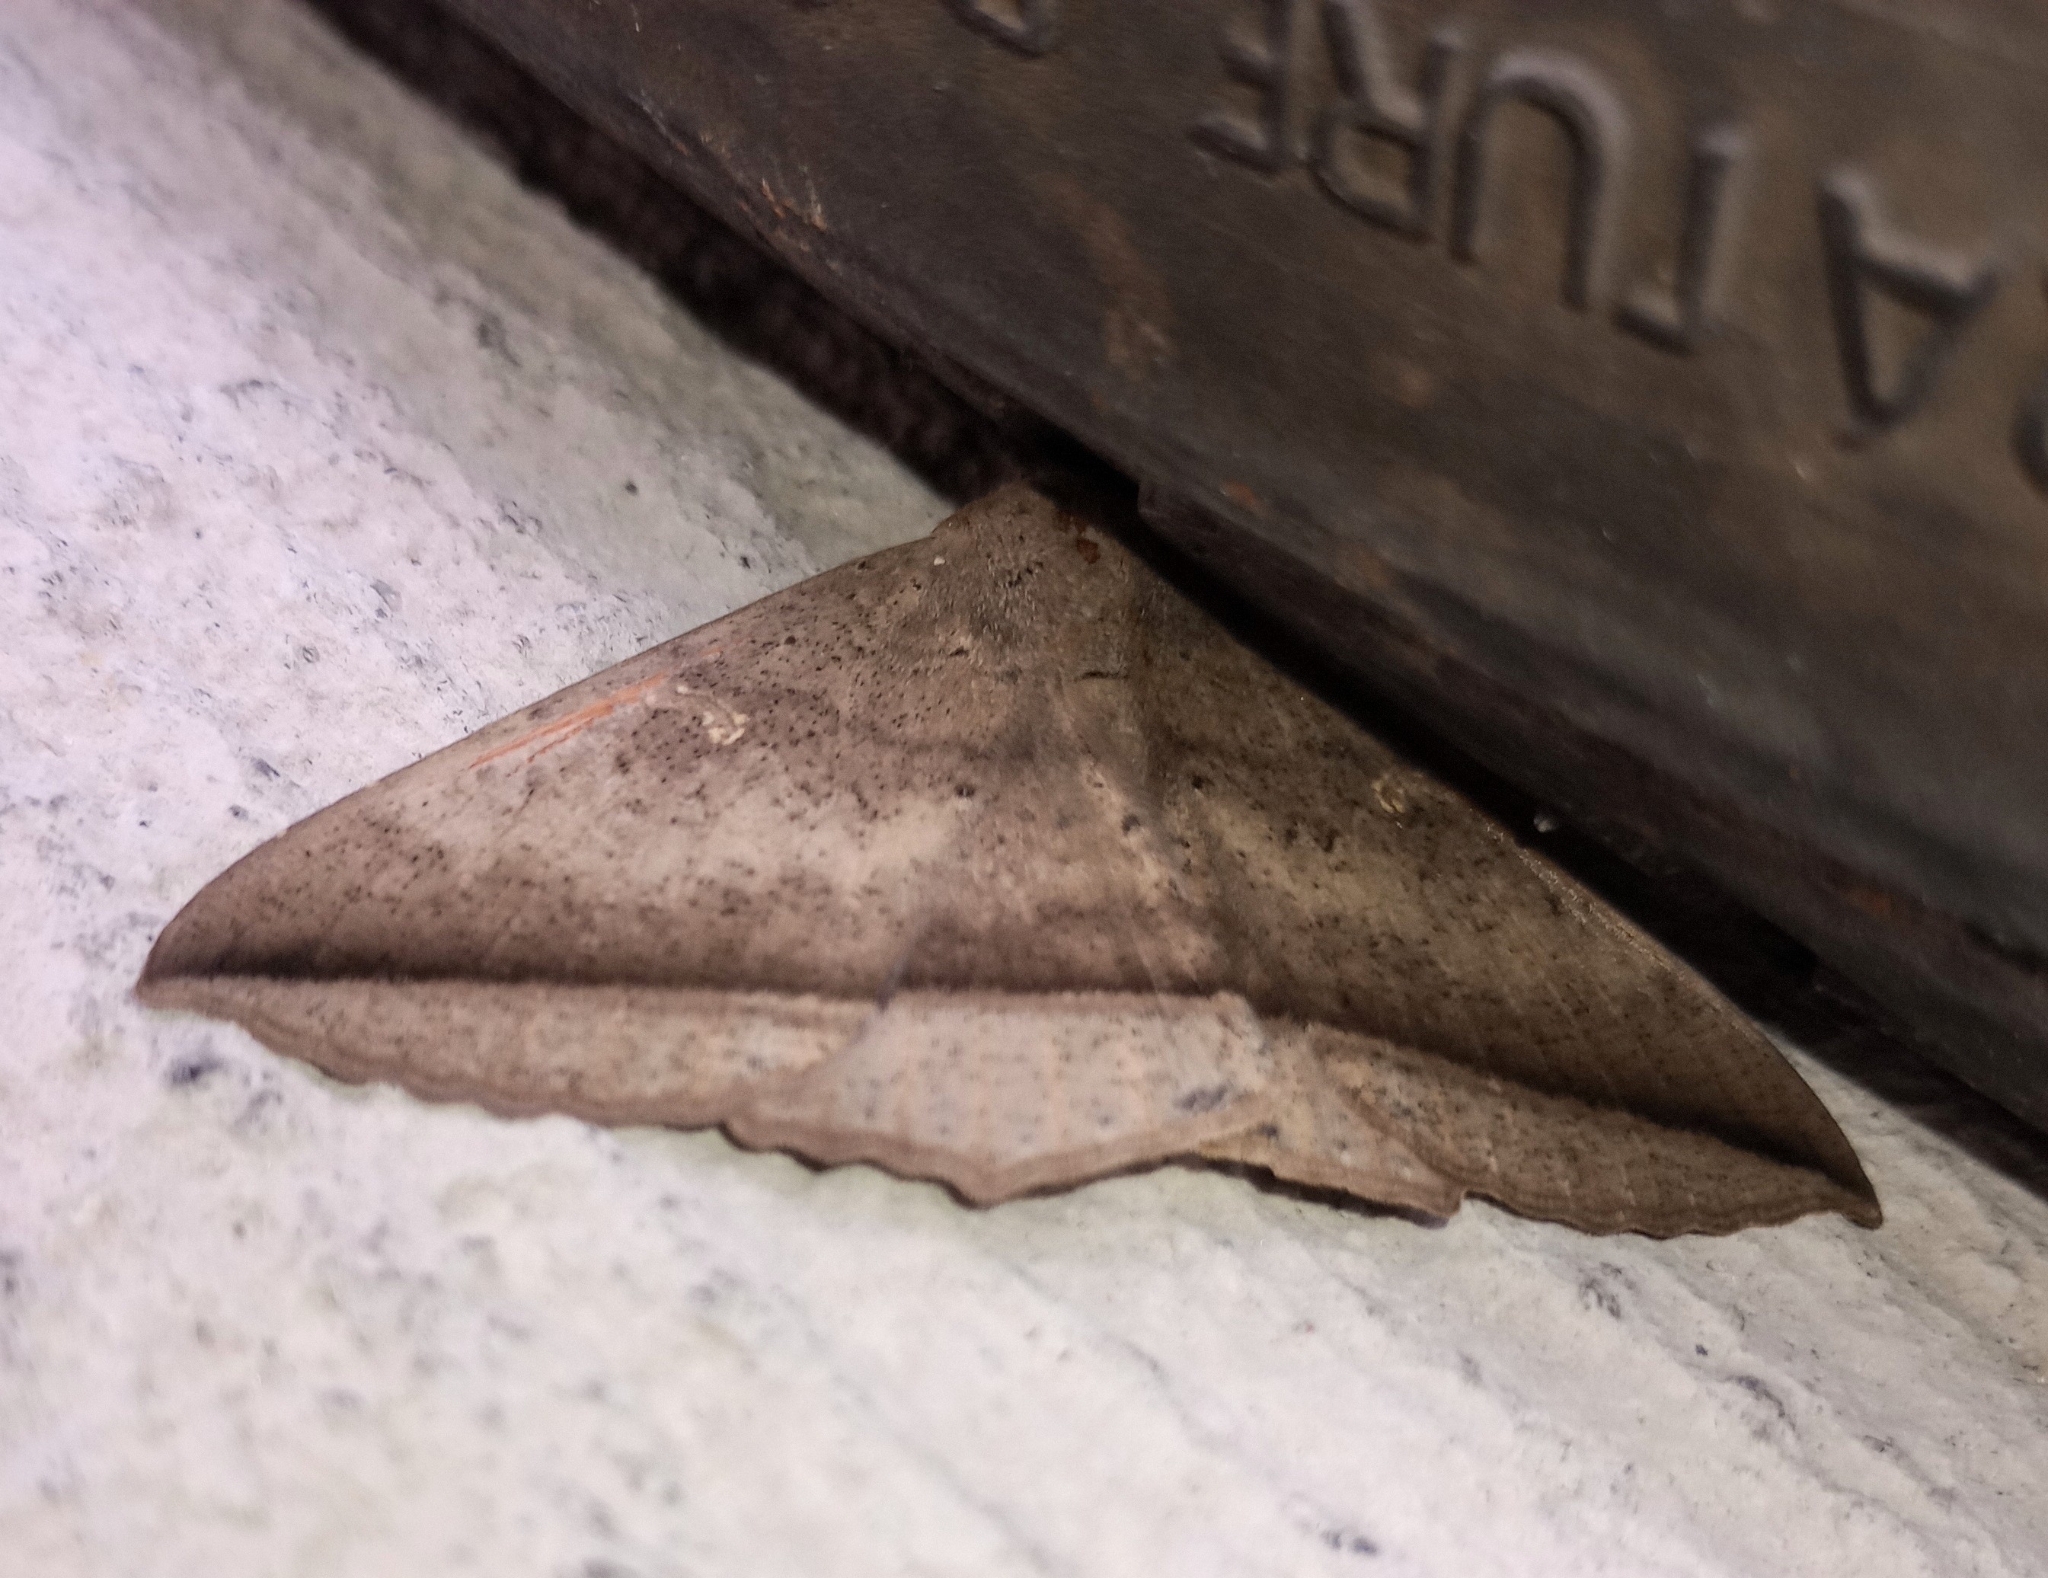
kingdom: Animalia
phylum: Arthropoda
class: Insecta
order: Lepidoptera
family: Erebidae
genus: Hulodes
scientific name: Hulodes caranea
